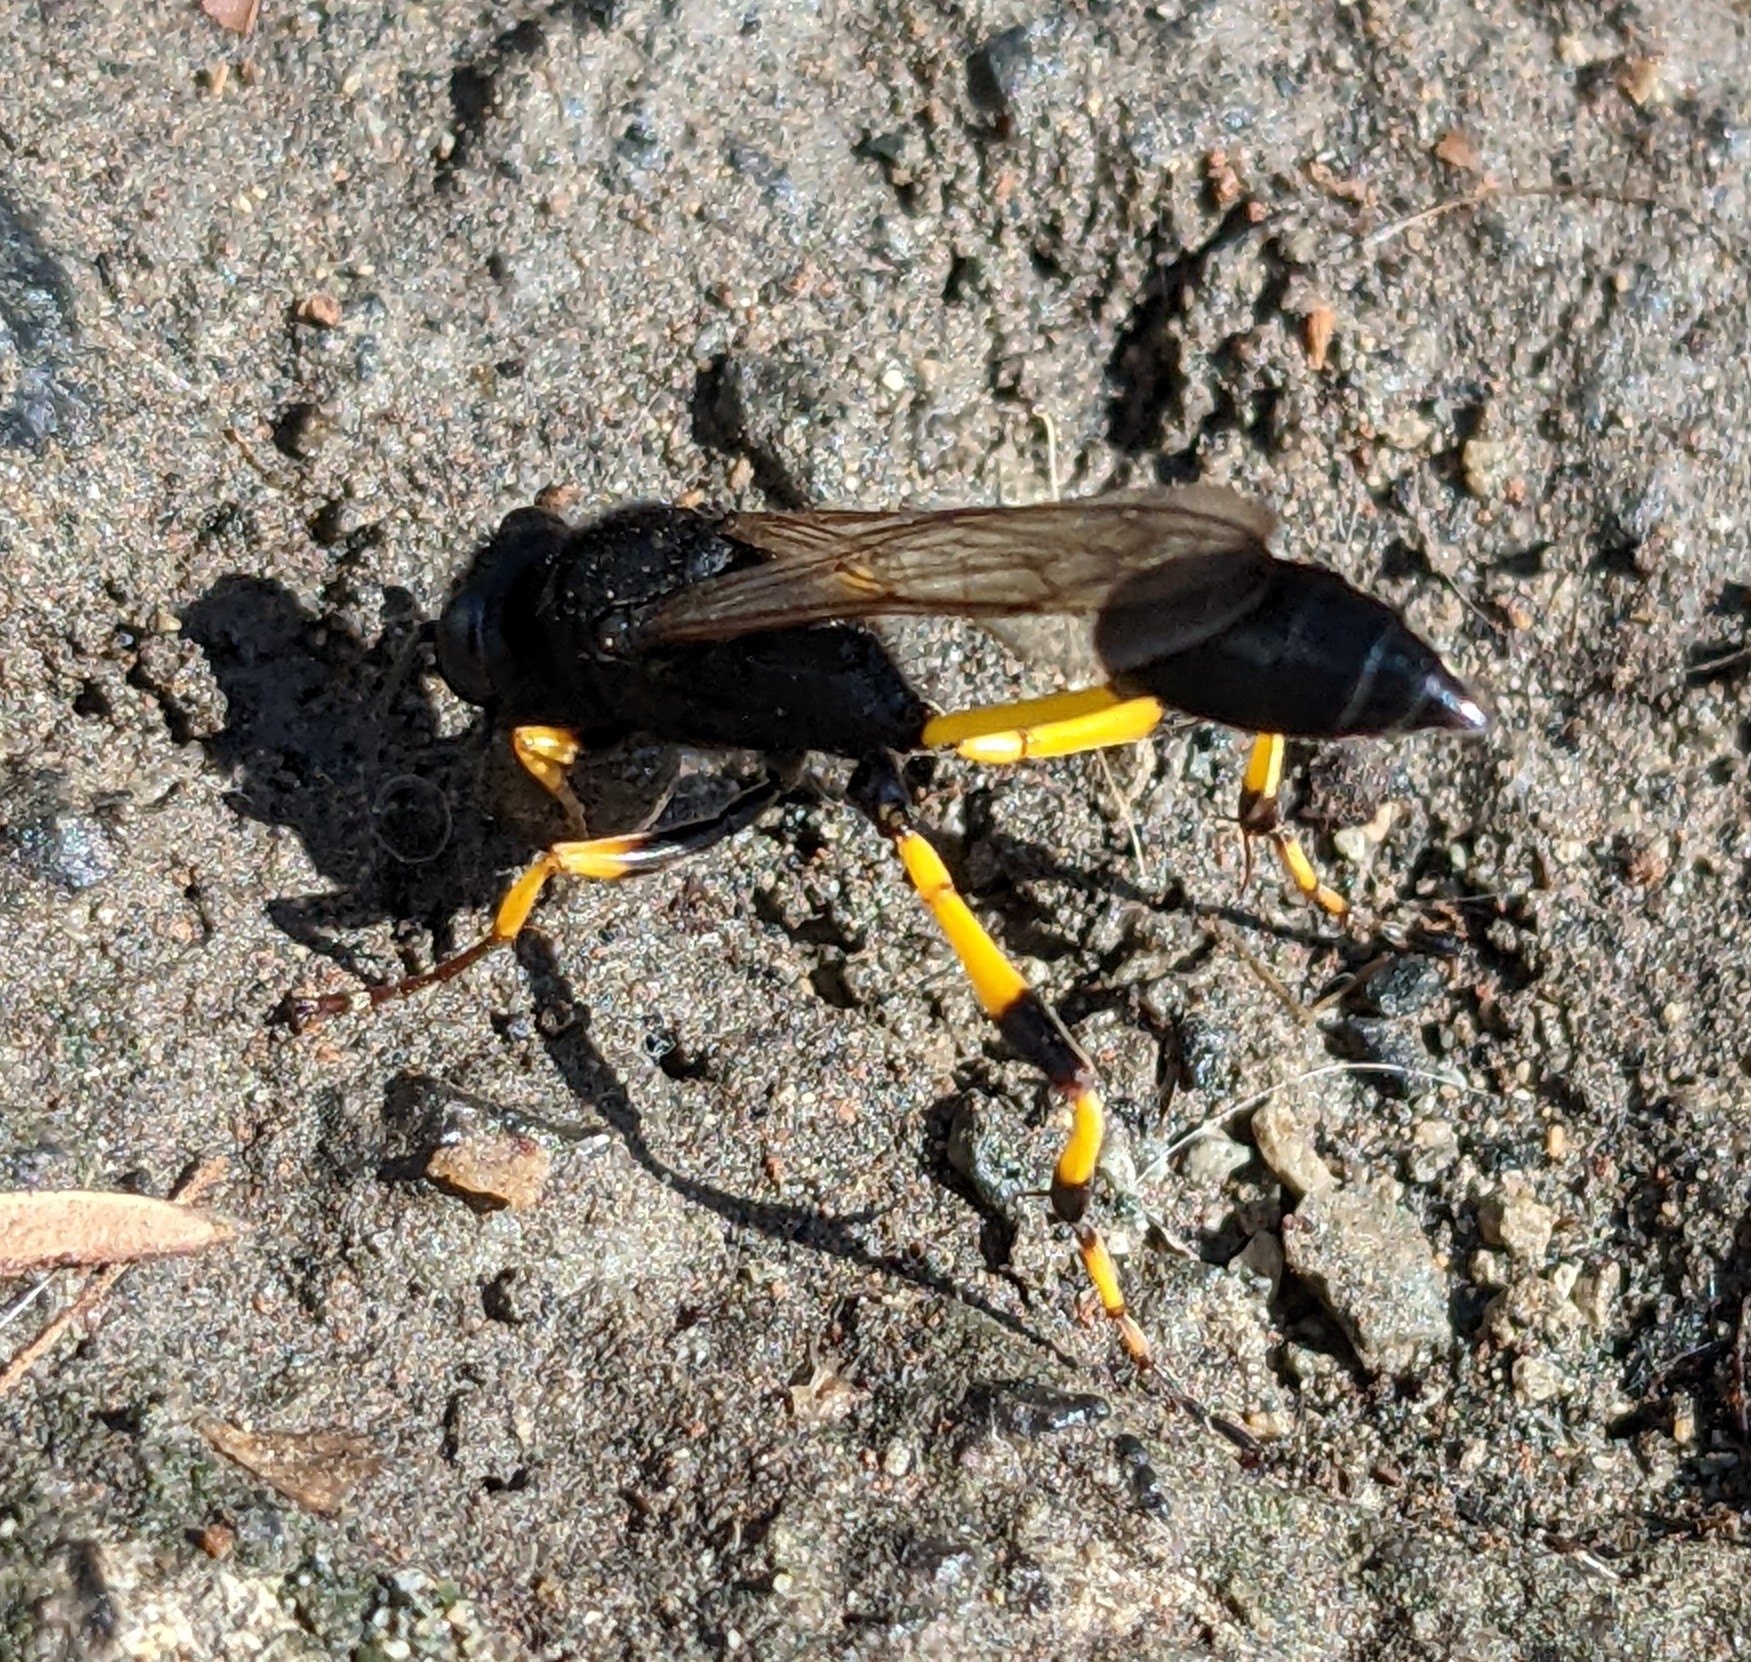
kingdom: Animalia
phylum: Arthropoda
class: Insecta
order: Hymenoptera
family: Sphecidae
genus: Sceliphron
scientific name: Sceliphron spirifex
